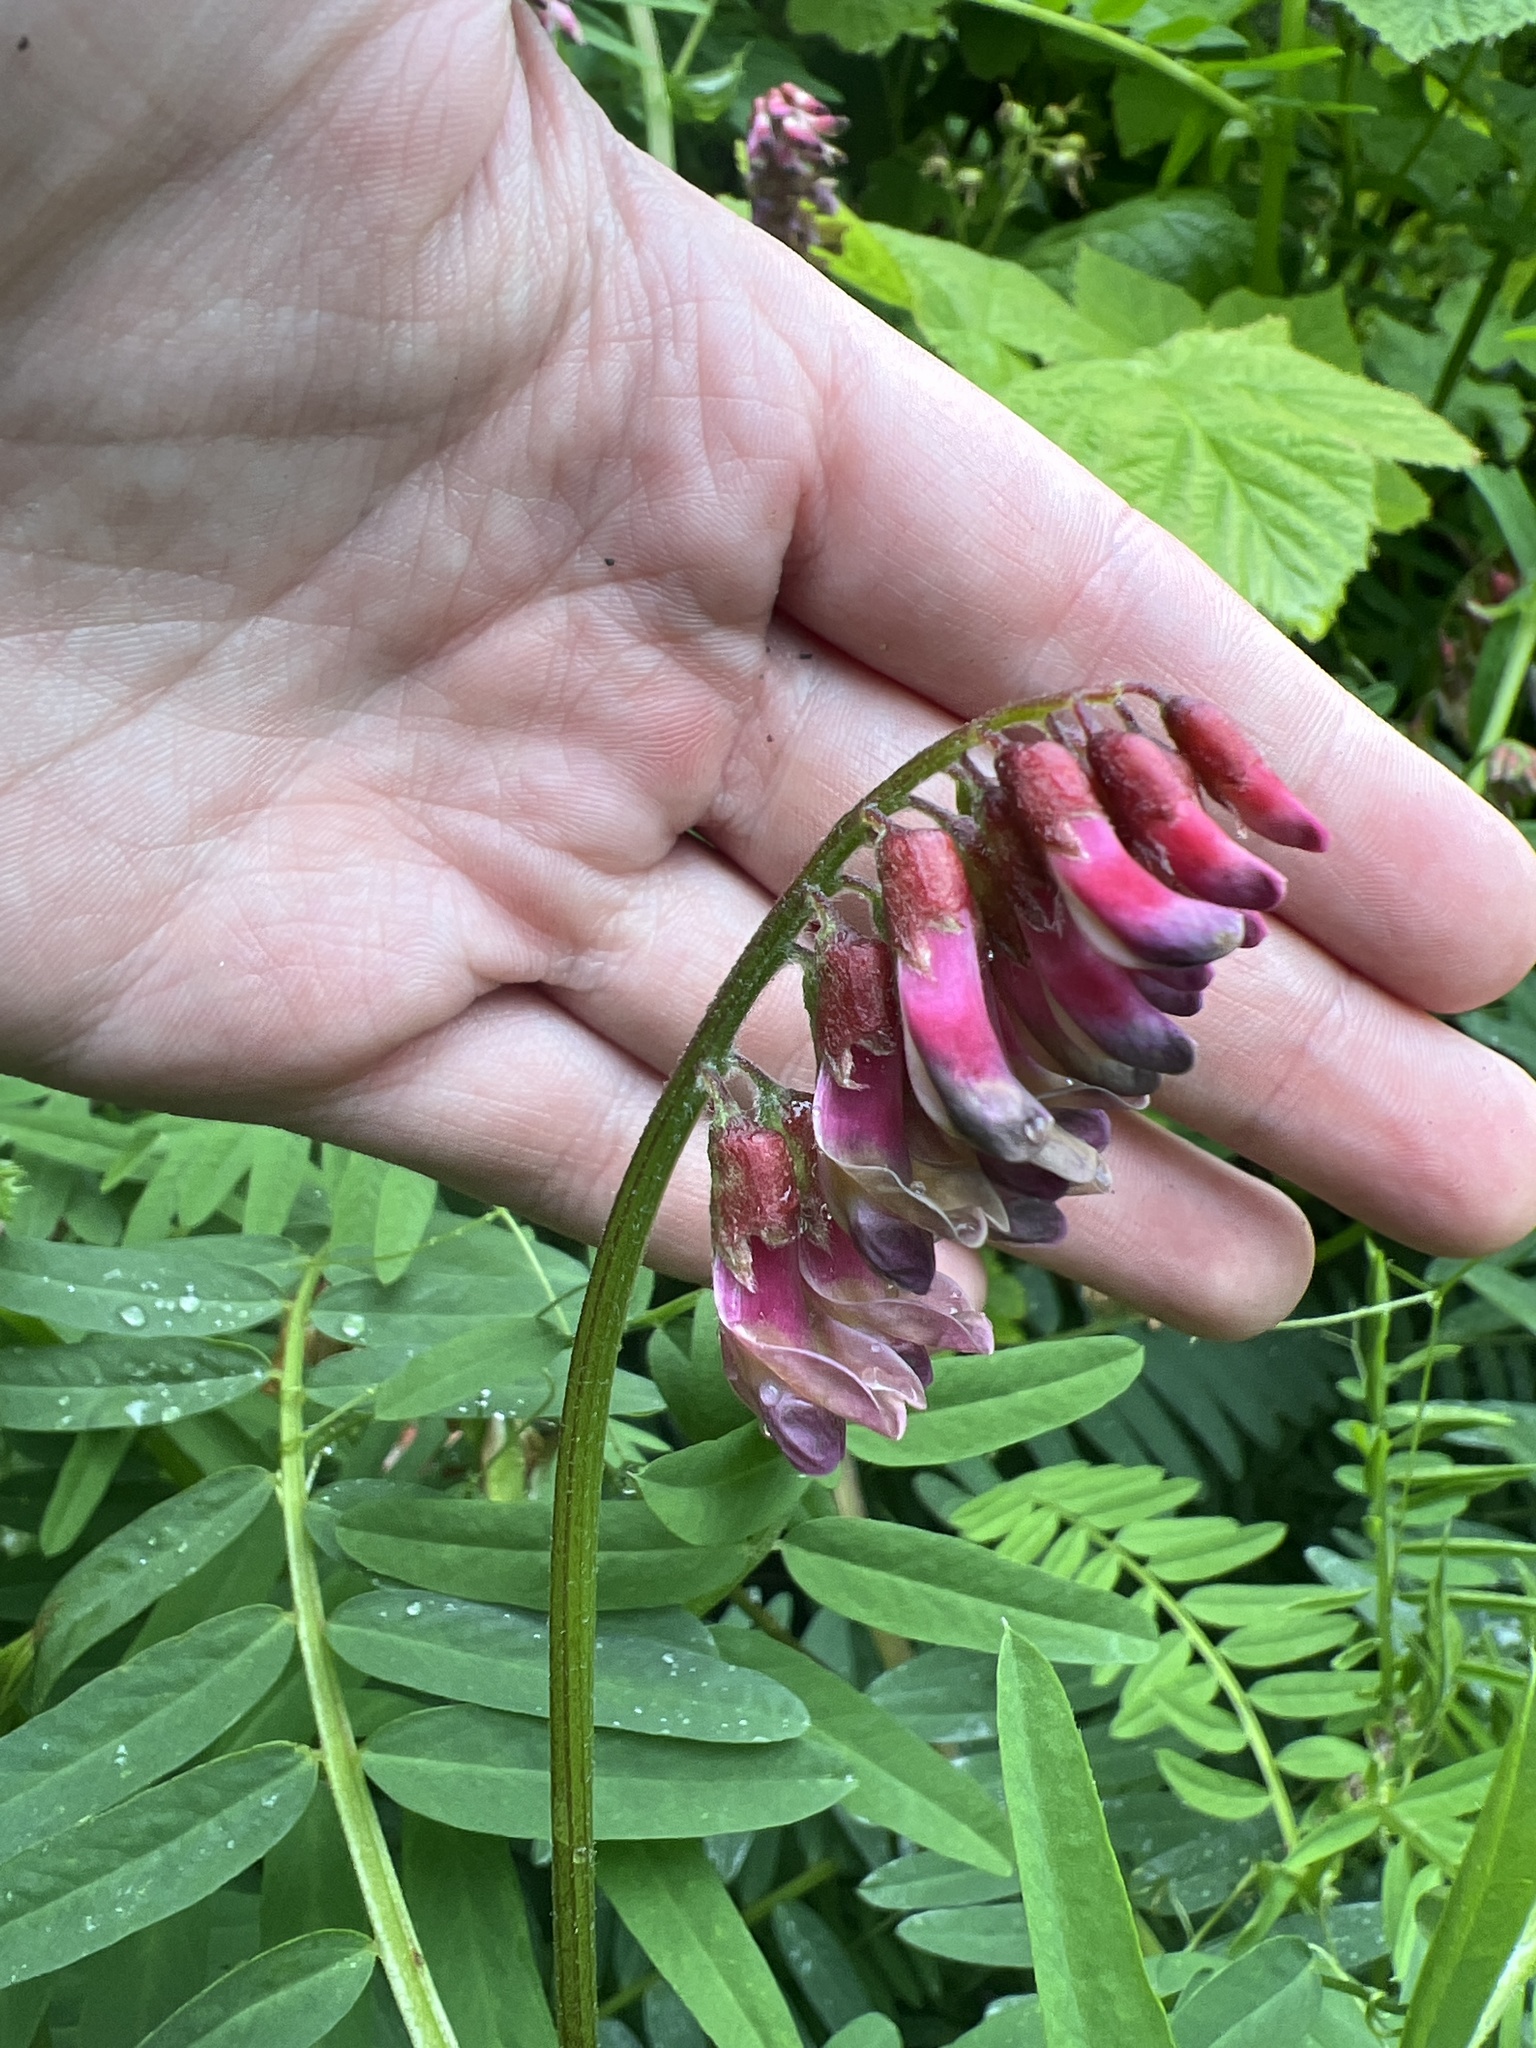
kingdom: Plantae
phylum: Tracheophyta
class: Magnoliopsida
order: Fabales
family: Fabaceae
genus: Vicia
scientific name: Vicia
